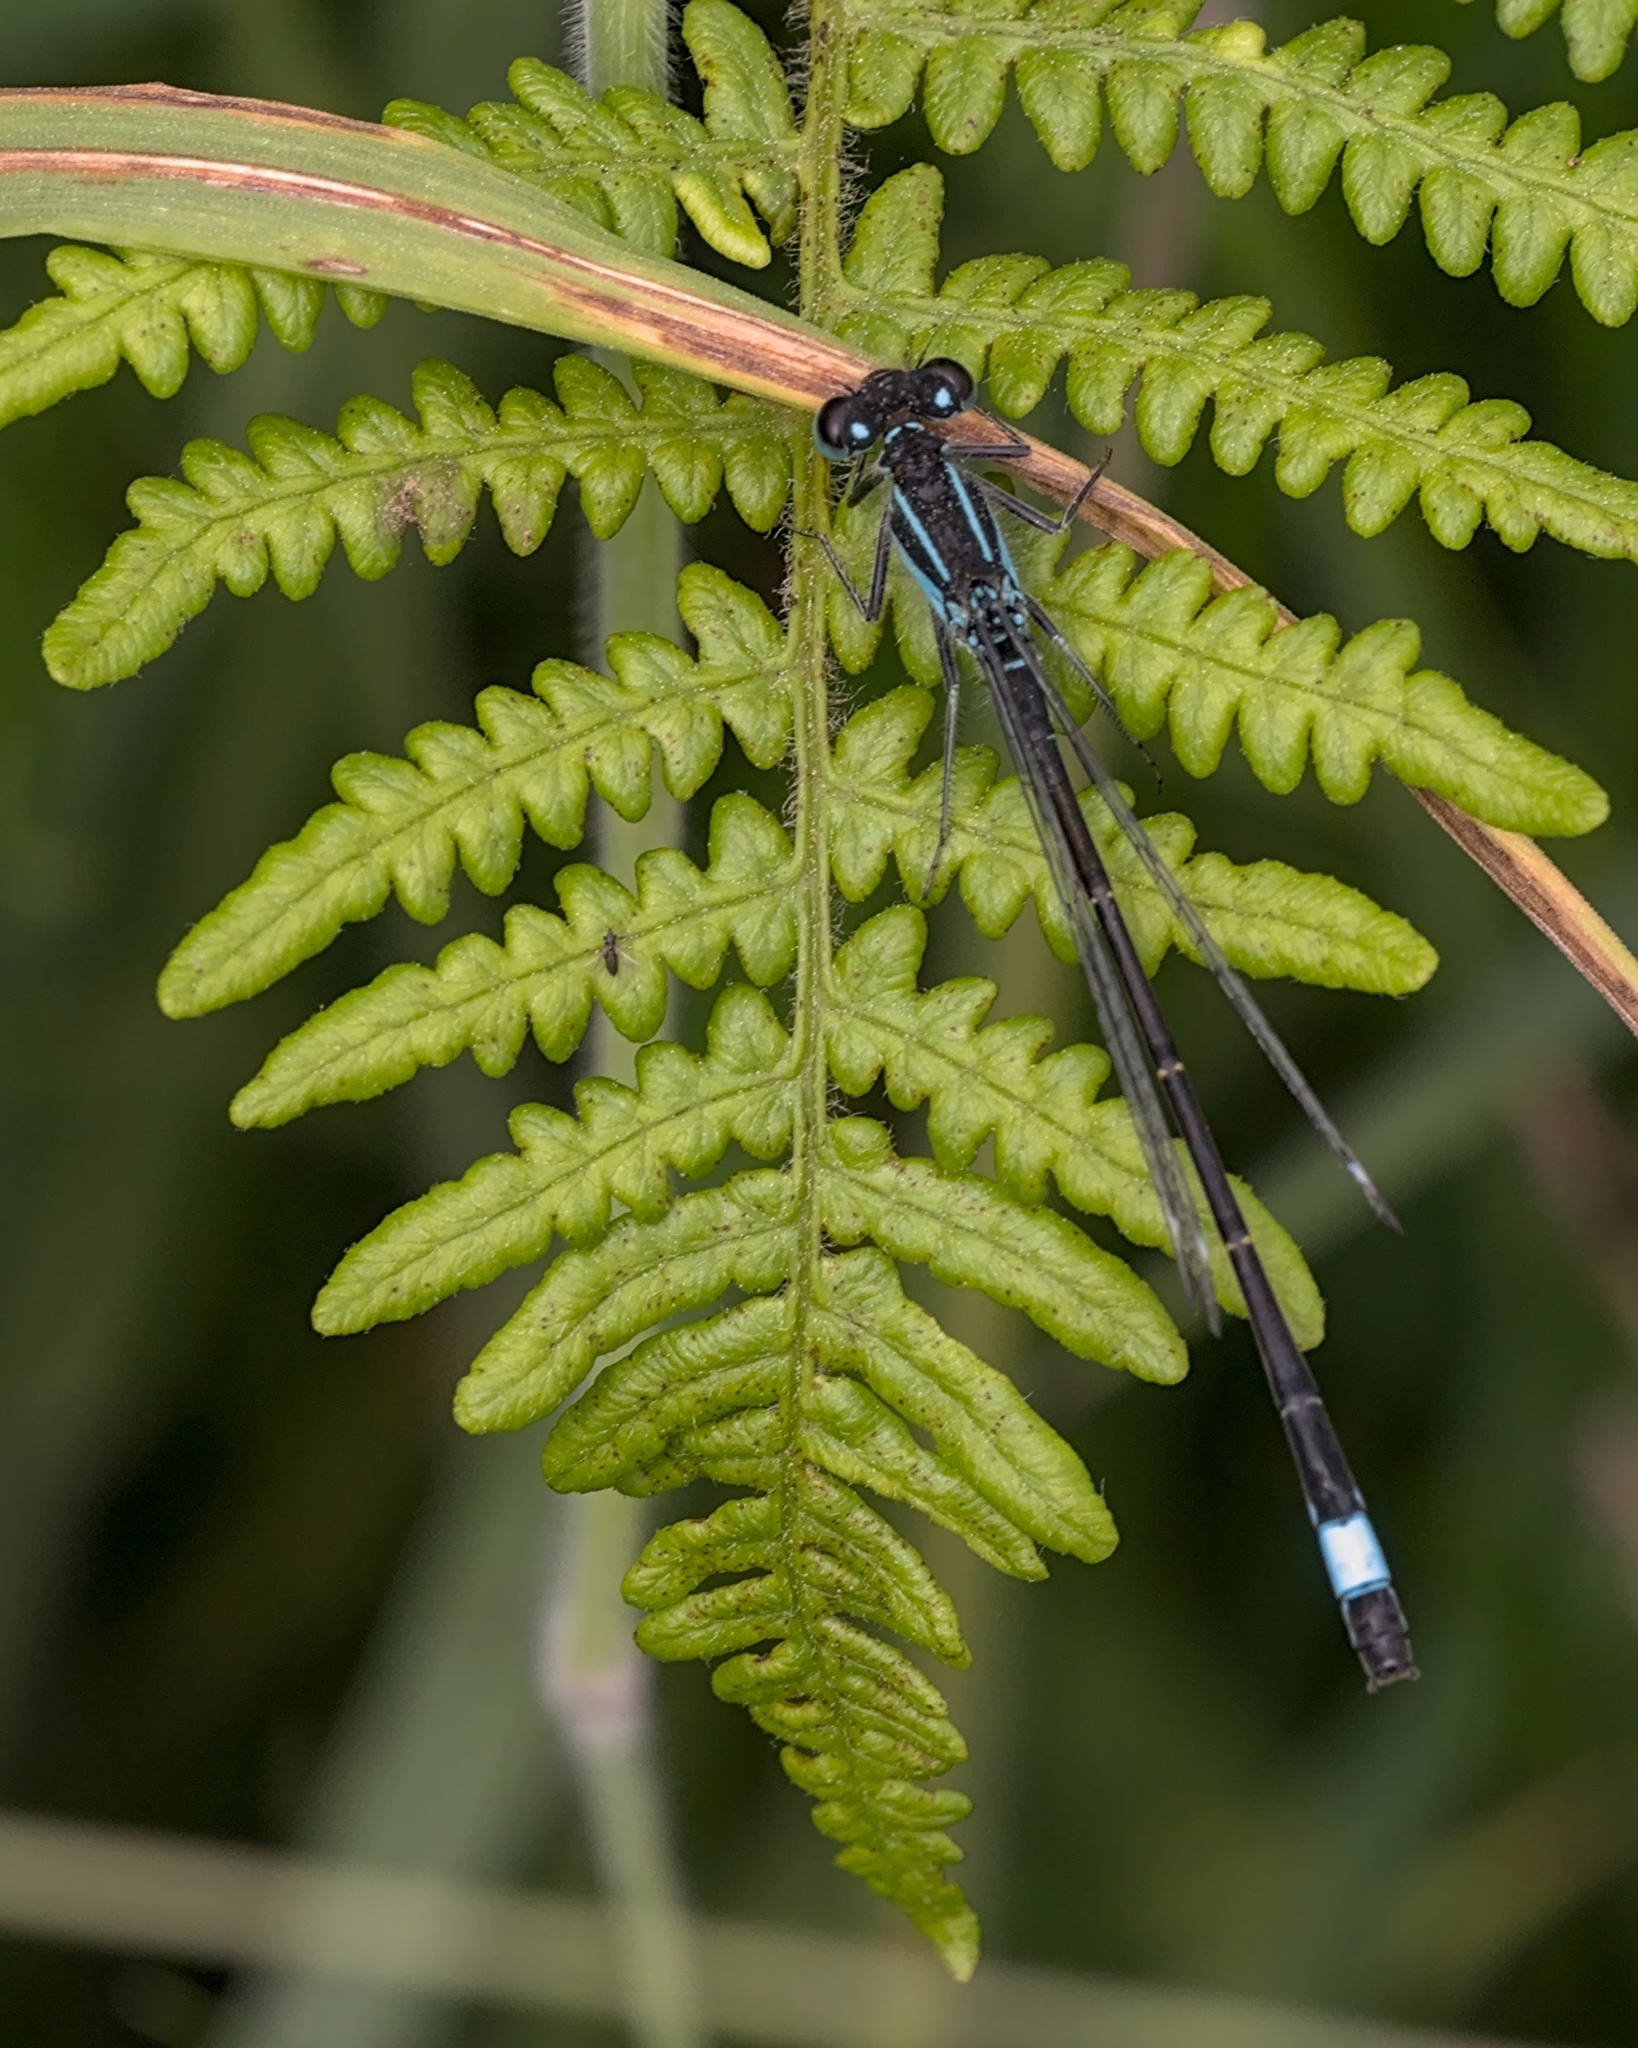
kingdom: Animalia
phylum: Arthropoda
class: Insecta
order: Odonata
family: Coenagrionidae
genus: Ischnura
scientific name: Ischnura elegans
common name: Blue-tailed damselfly
